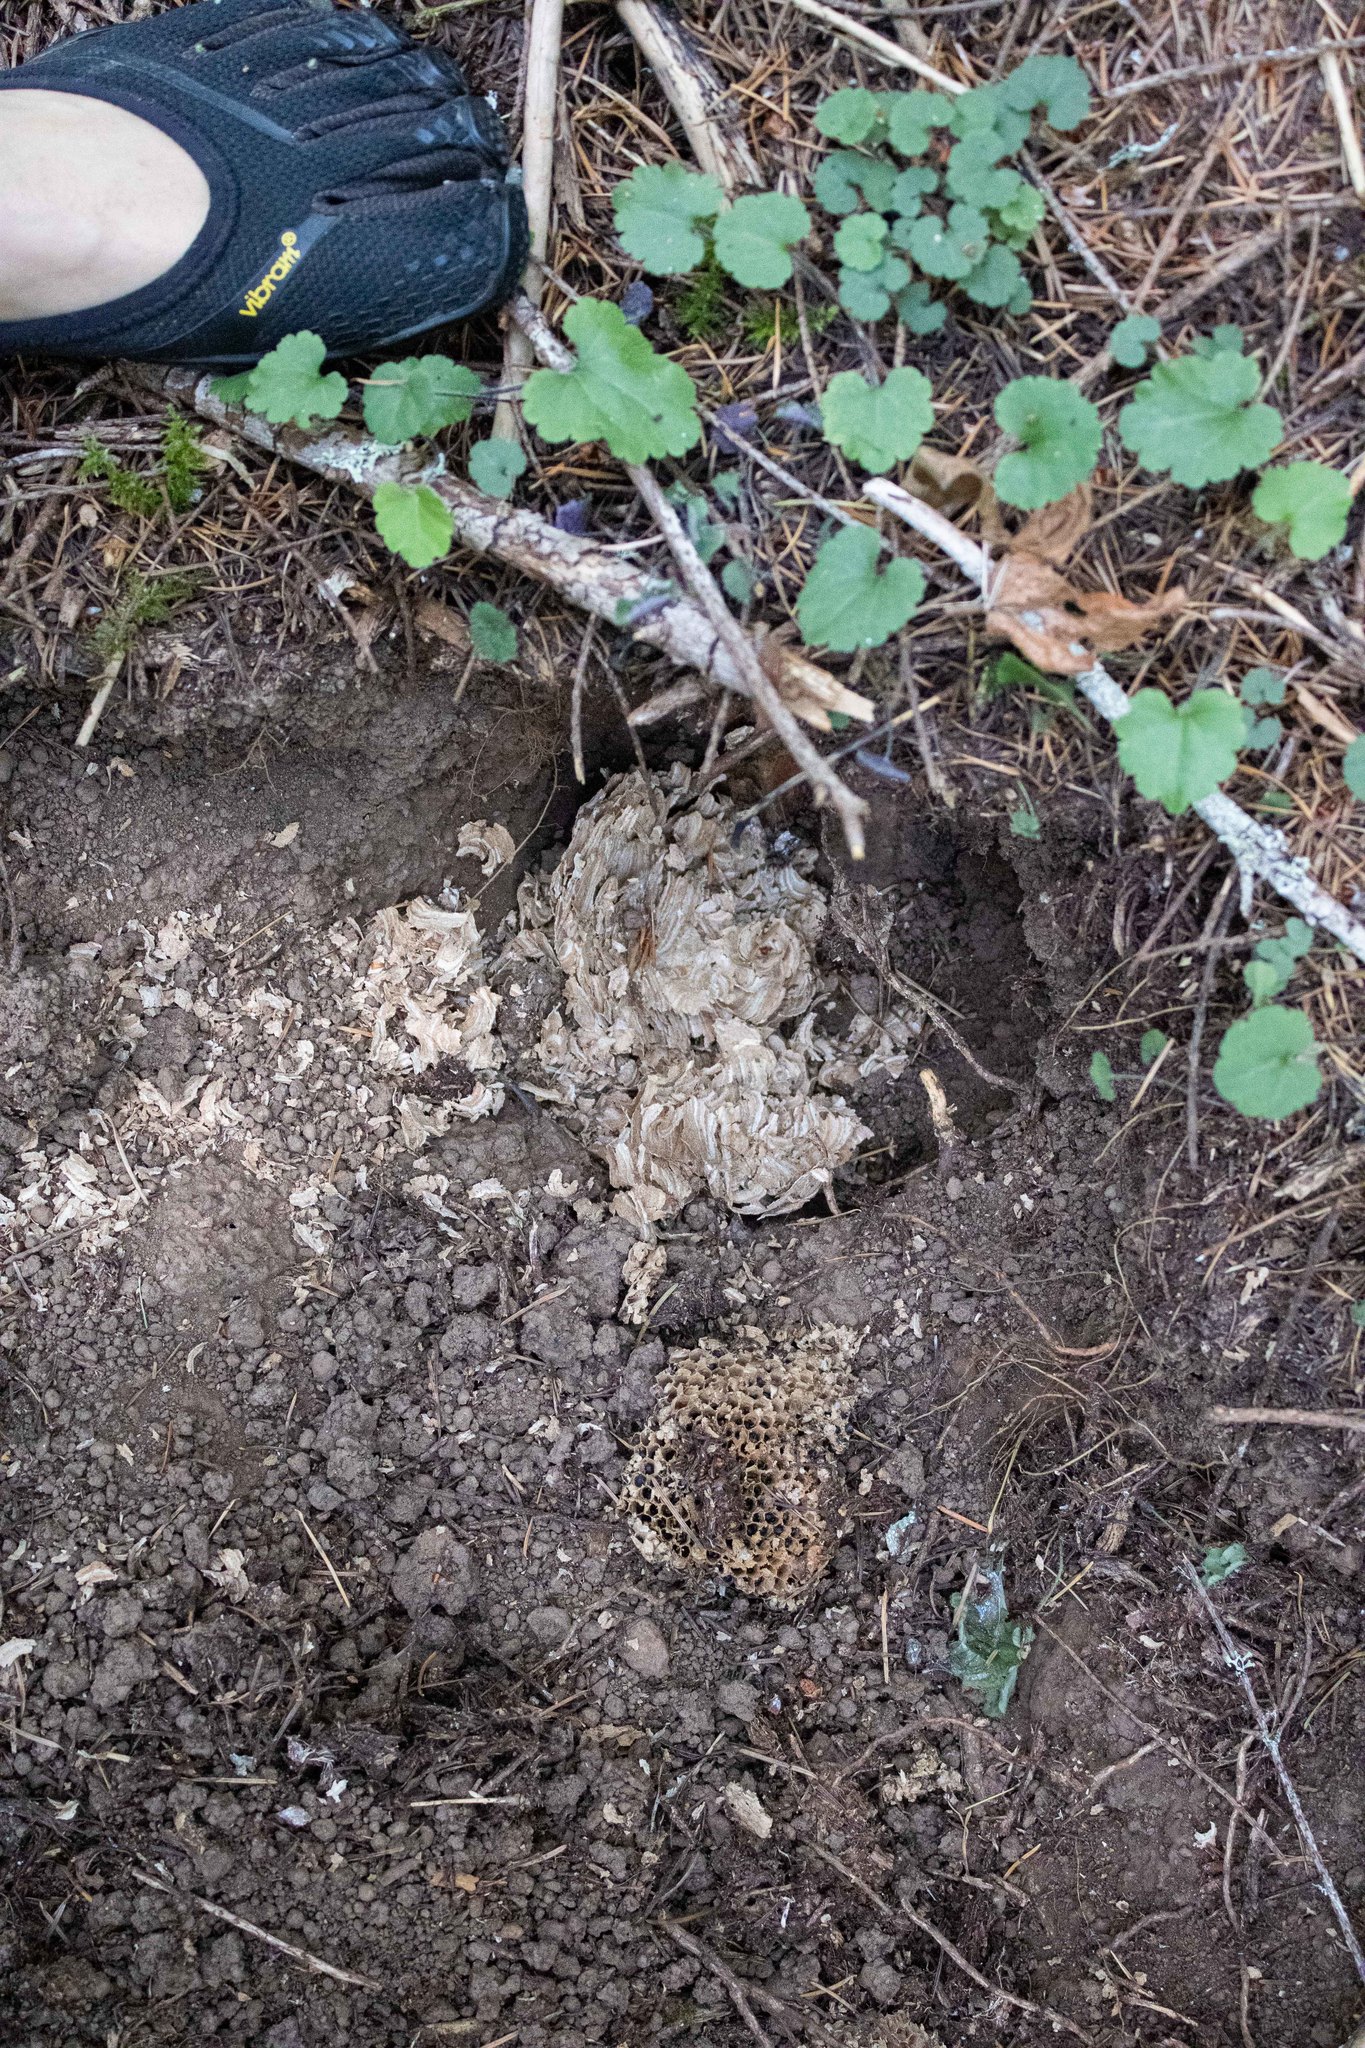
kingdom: Animalia
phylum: Arthropoda
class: Insecta
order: Hymenoptera
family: Vespidae
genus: Vespula
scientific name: Vespula
